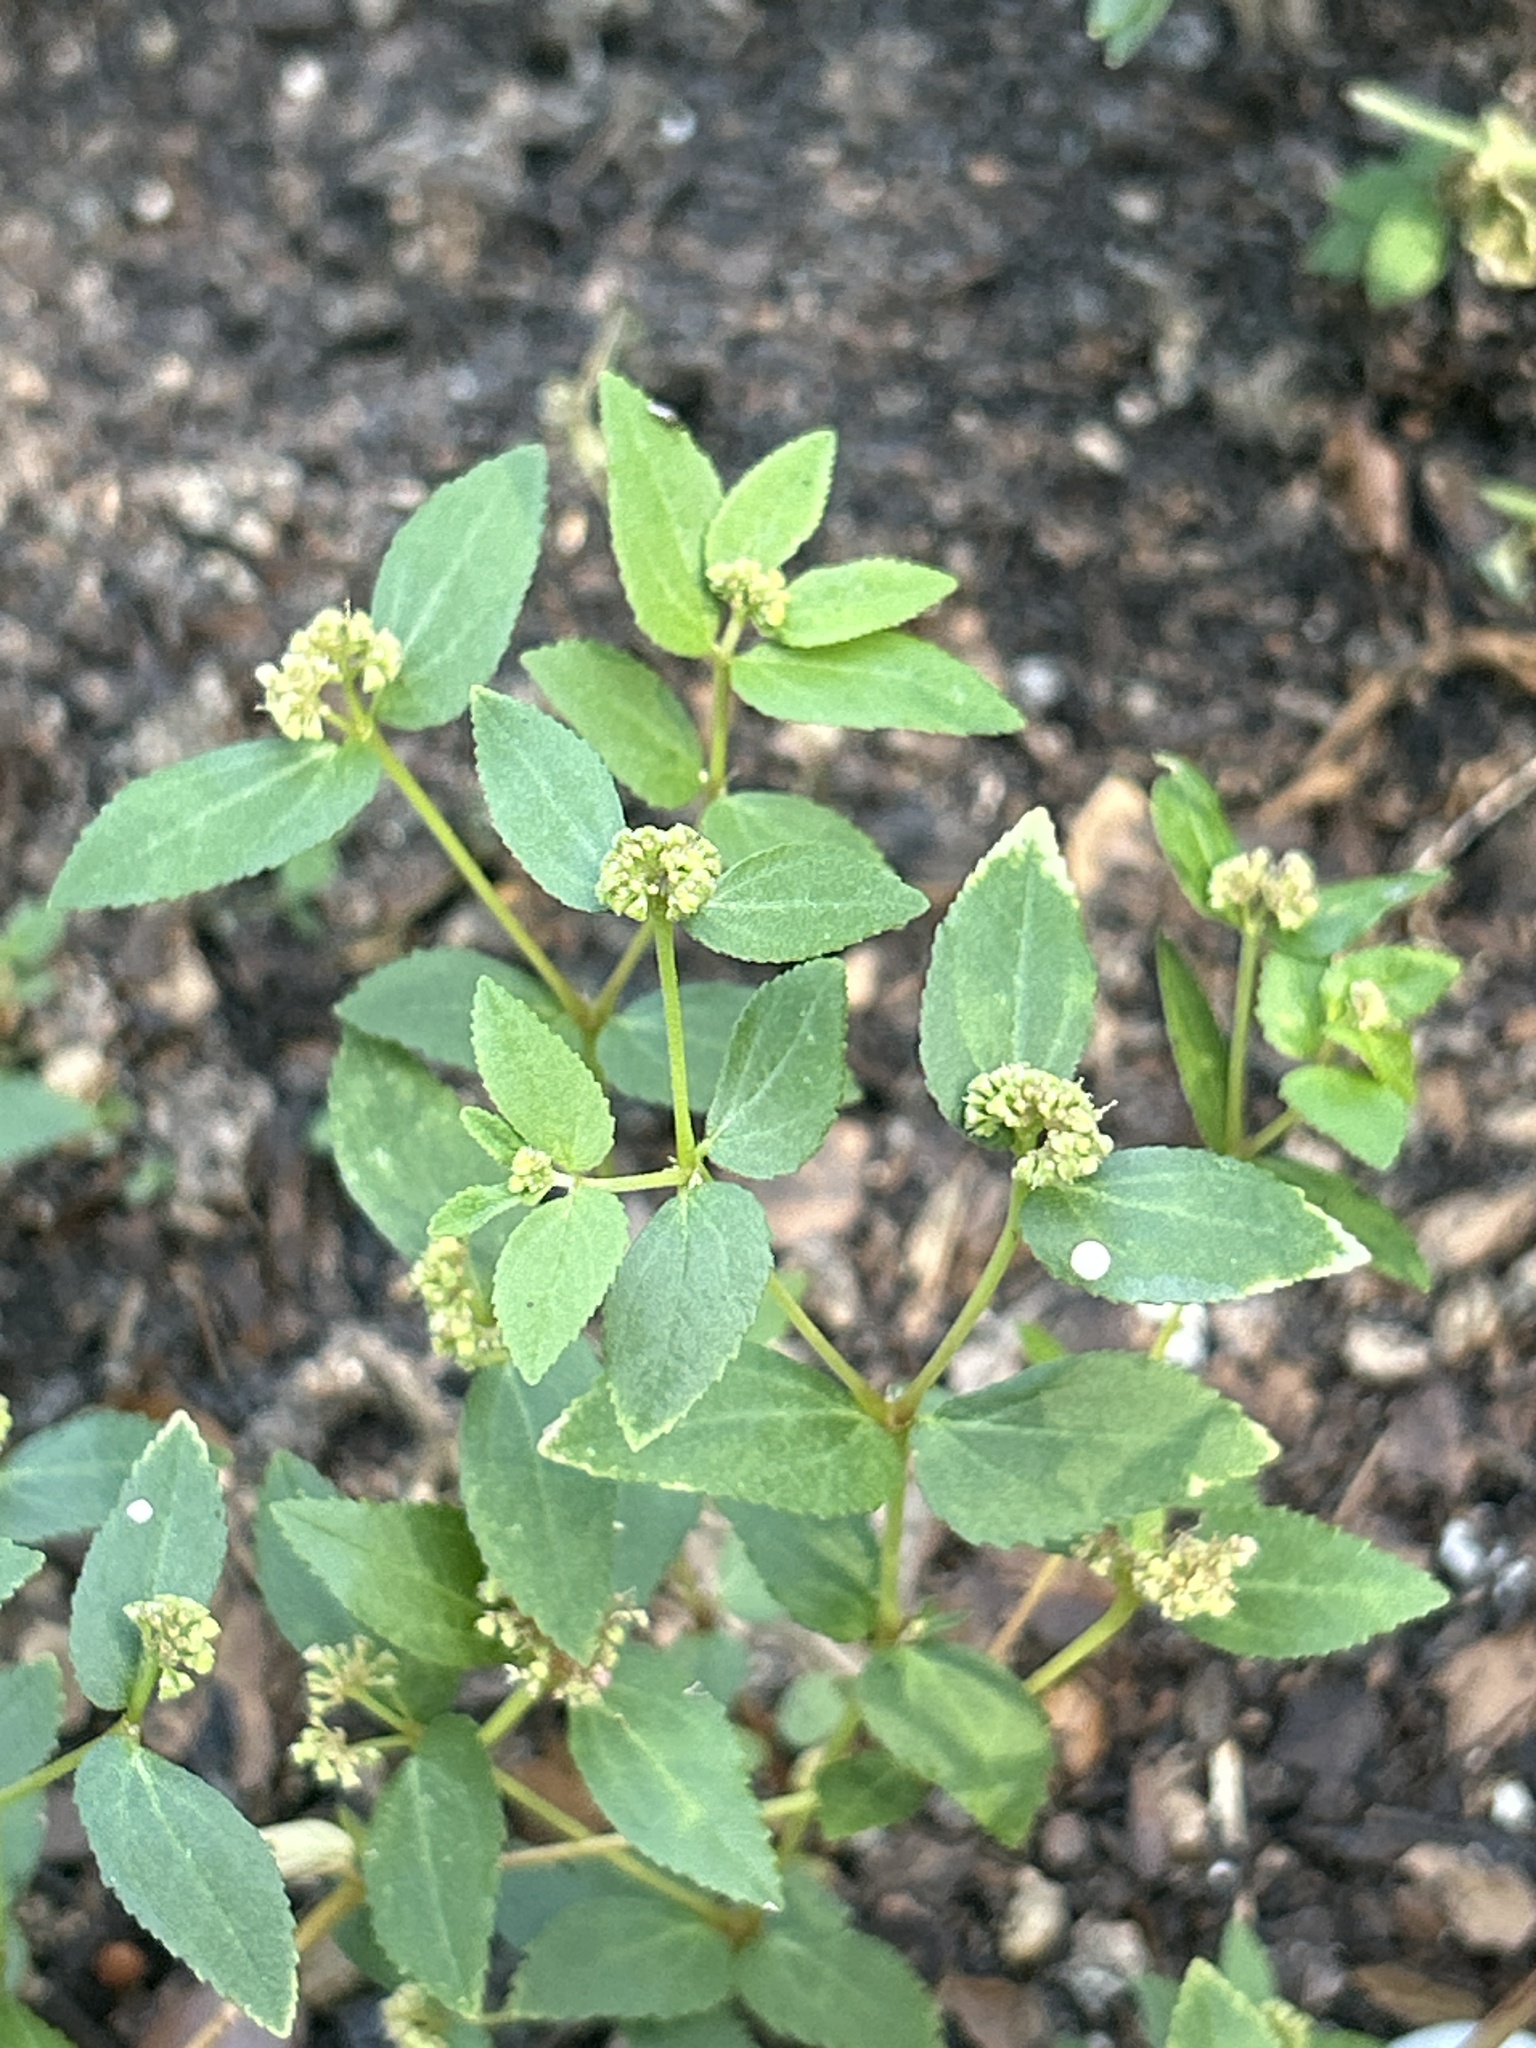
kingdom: Plantae
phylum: Tracheophyta
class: Magnoliopsida
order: Malpighiales
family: Euphorbiaceae
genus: Euphorbia
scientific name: Euphorbia ophthalmica
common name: Florida hammock sandmat
